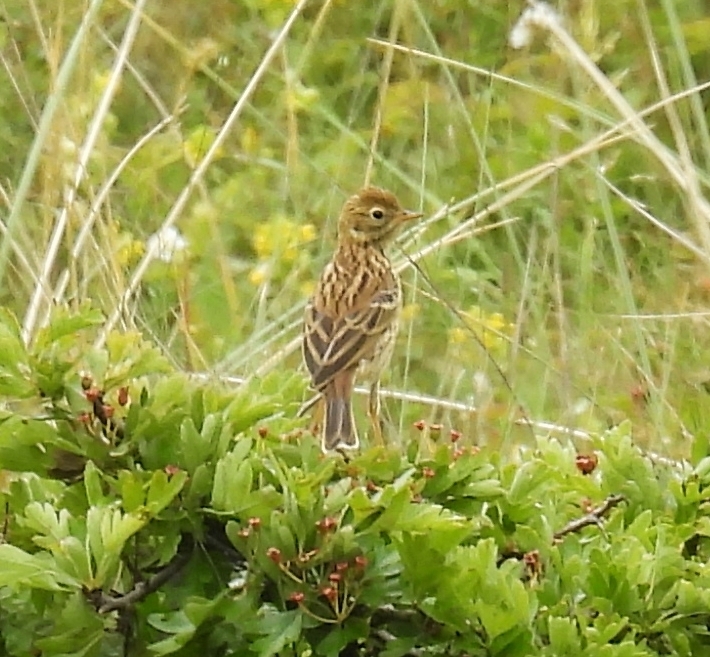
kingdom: Animalia
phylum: Chordata
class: Aves
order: Passeriformes
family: Motacillidae
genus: Anthus
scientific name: Anthus pratensis
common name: Meadow pipit
